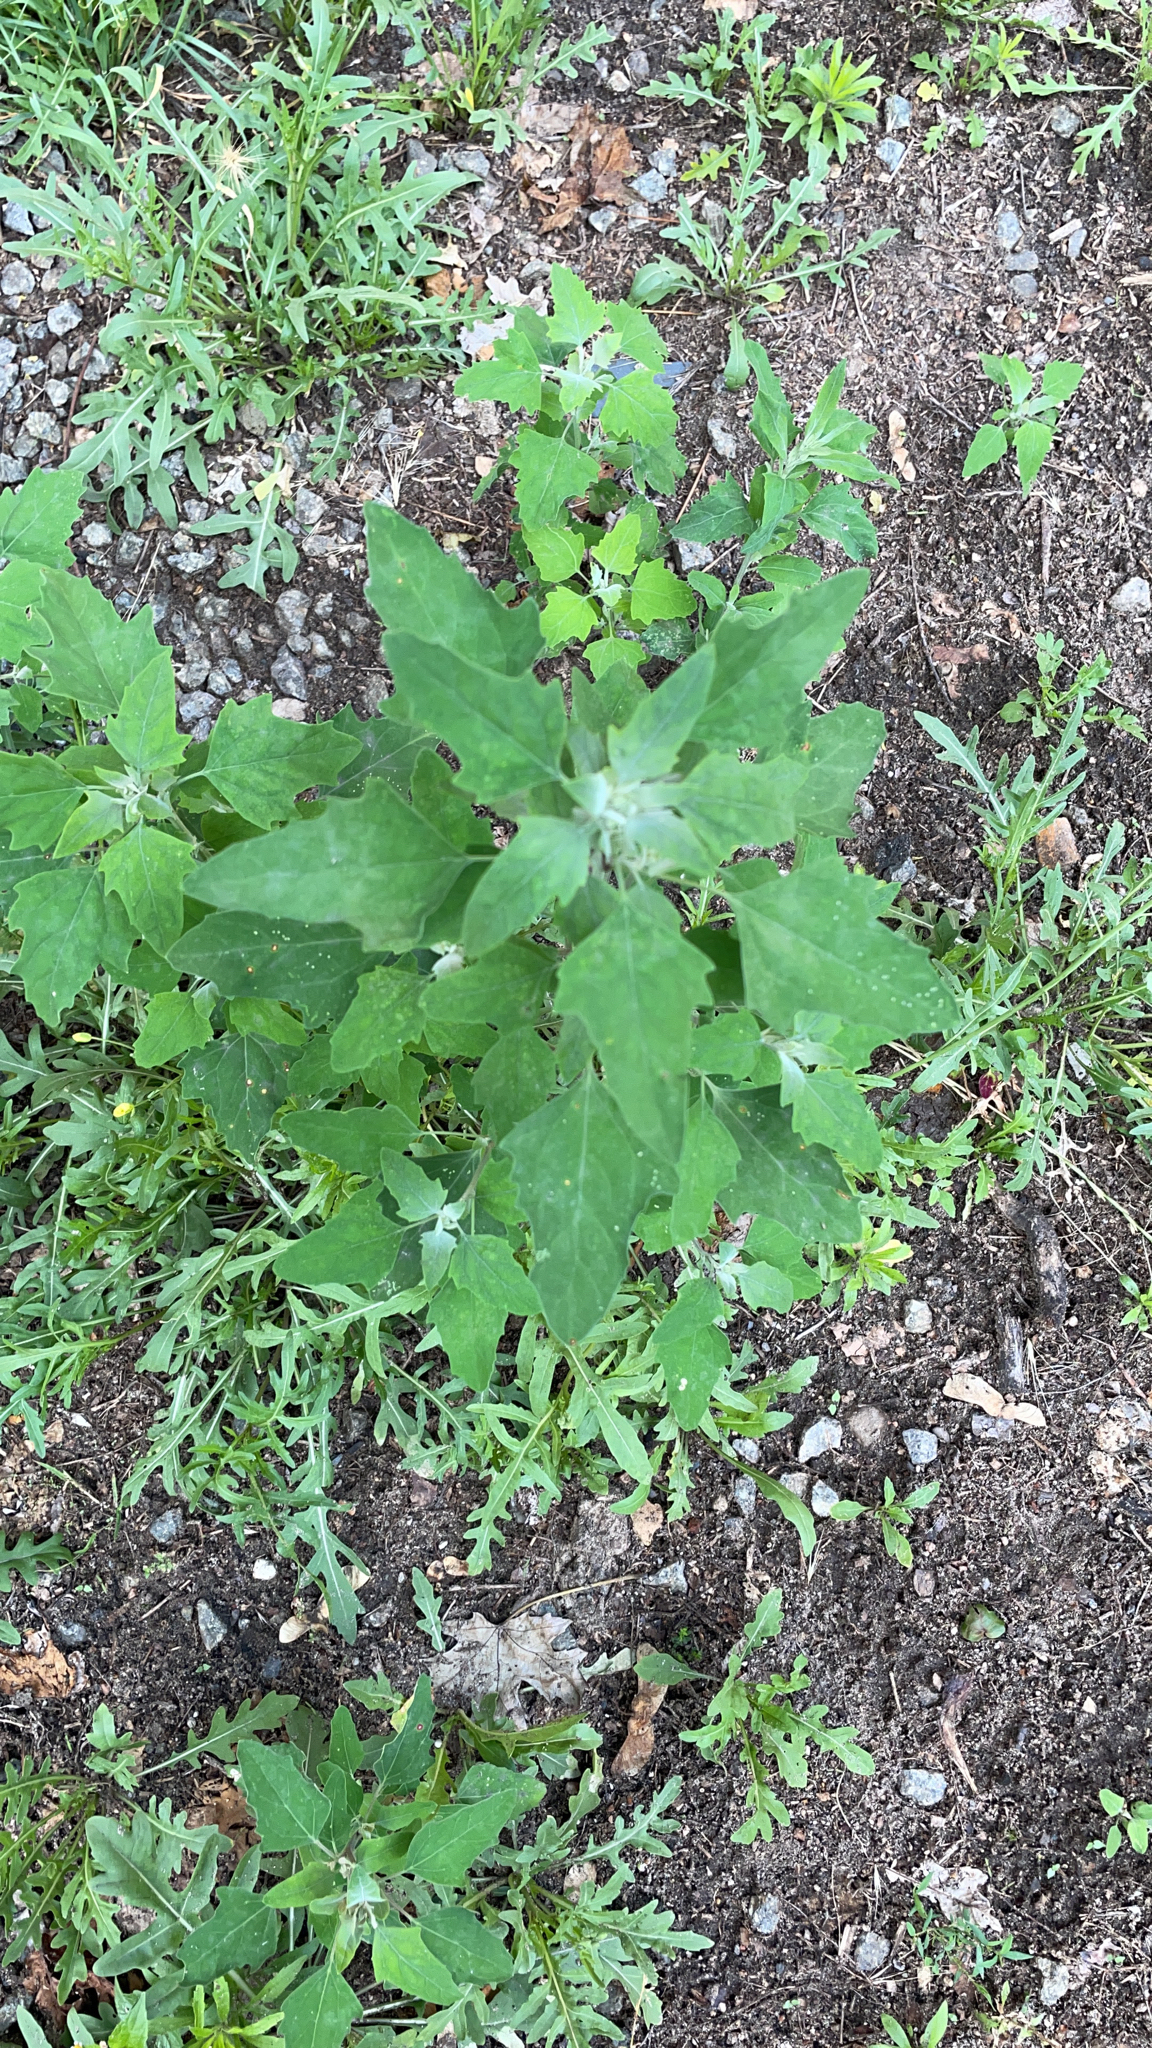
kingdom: Plantae
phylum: Tracheophyta
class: Magnoliopsida
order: Caryophyllales
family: Amaranthaceae
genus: Chenopodium
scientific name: Chenopodium album
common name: Fat-hen
